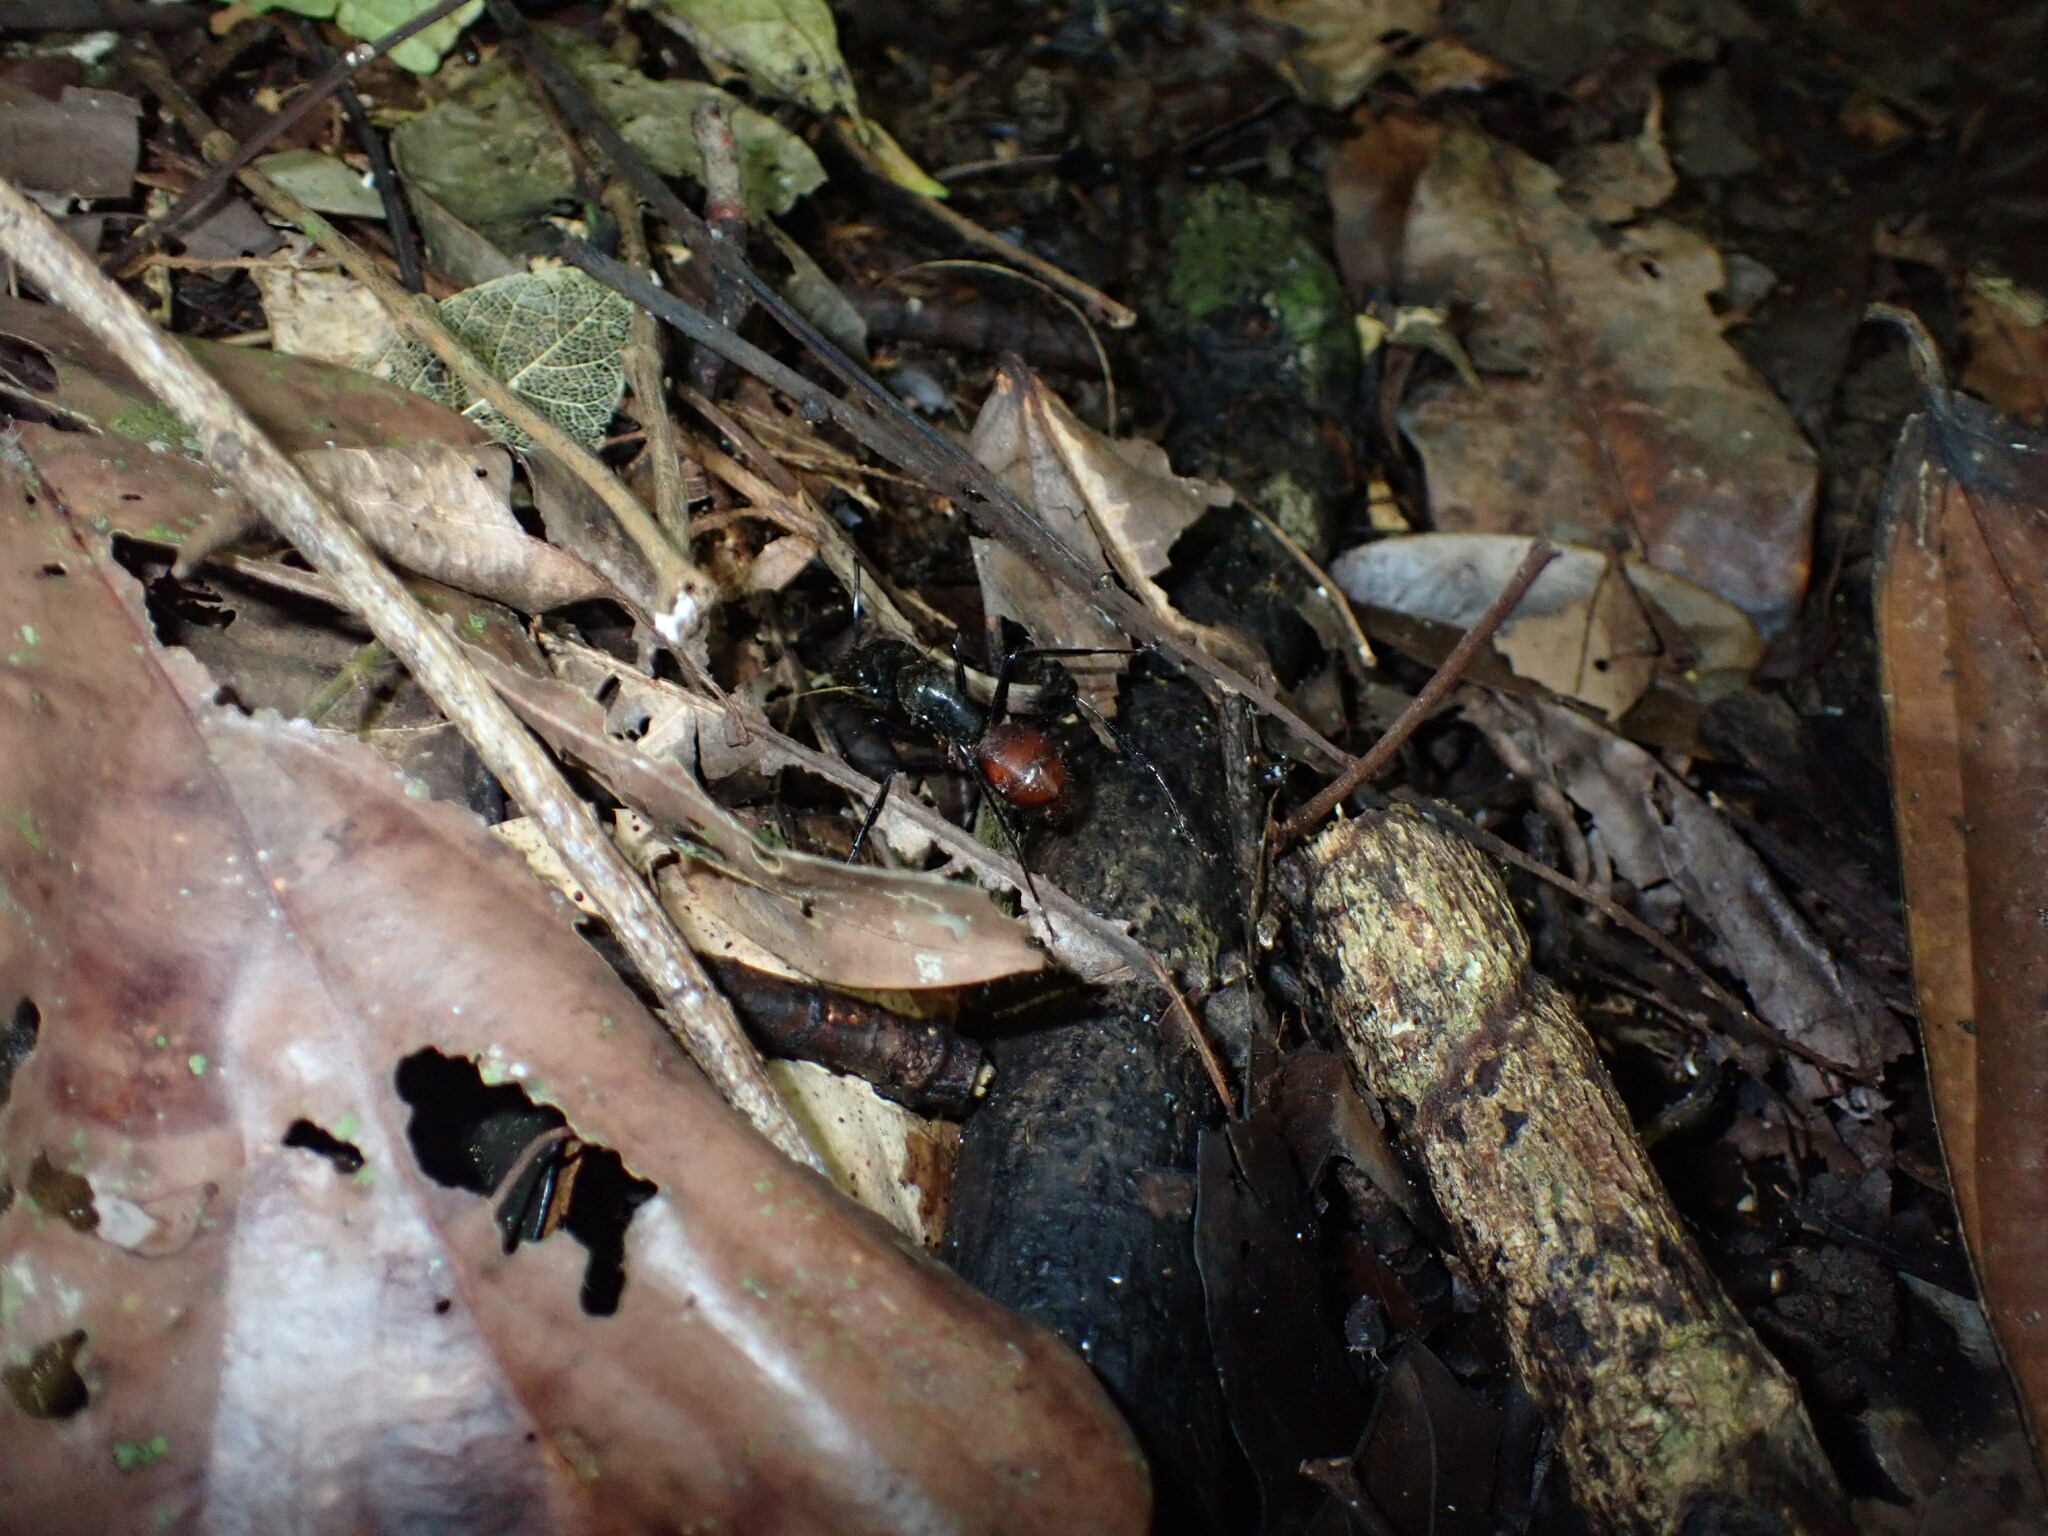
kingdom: Animalia
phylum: Arthropoda
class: Insecta
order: Hymenoptera
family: Formicidae
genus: Dinomyrmex
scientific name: Dinomyrmex
